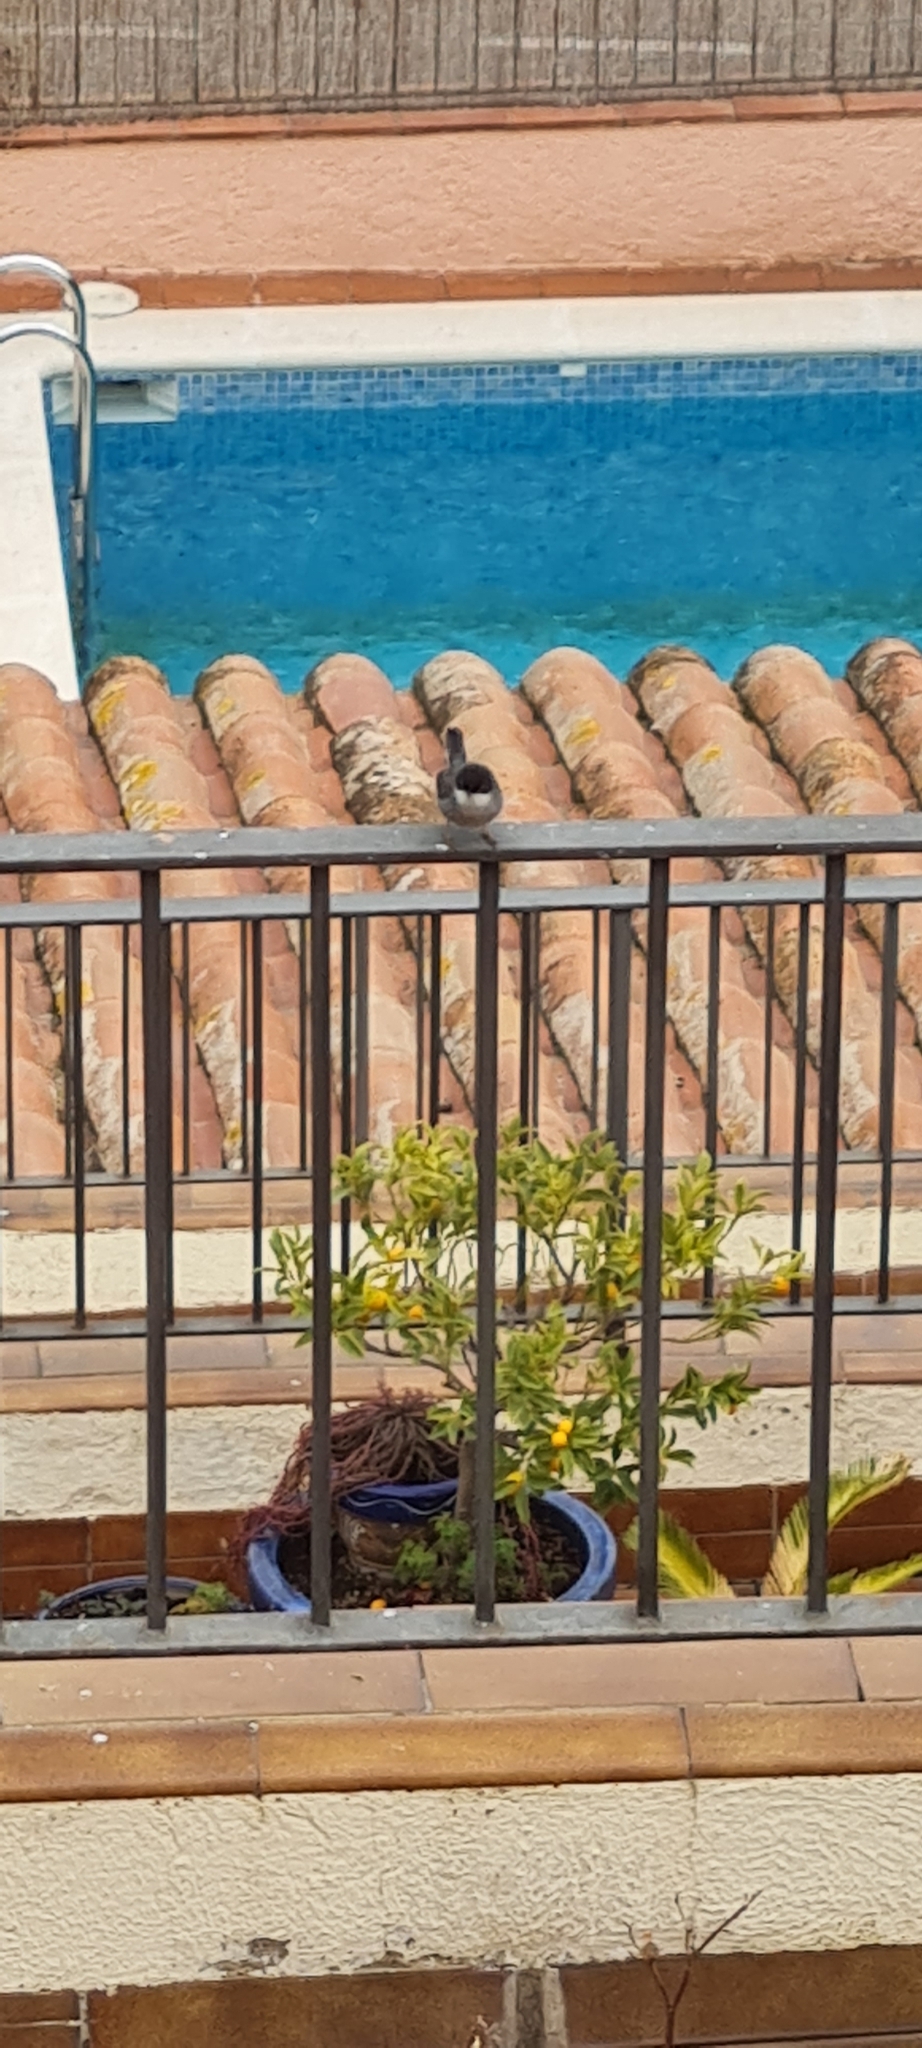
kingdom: Animalia
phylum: Chordata
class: Aves
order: Passeriformes
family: Sylviidae
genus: Curruca
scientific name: Curruca melanocephala
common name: Sardinian warbler
